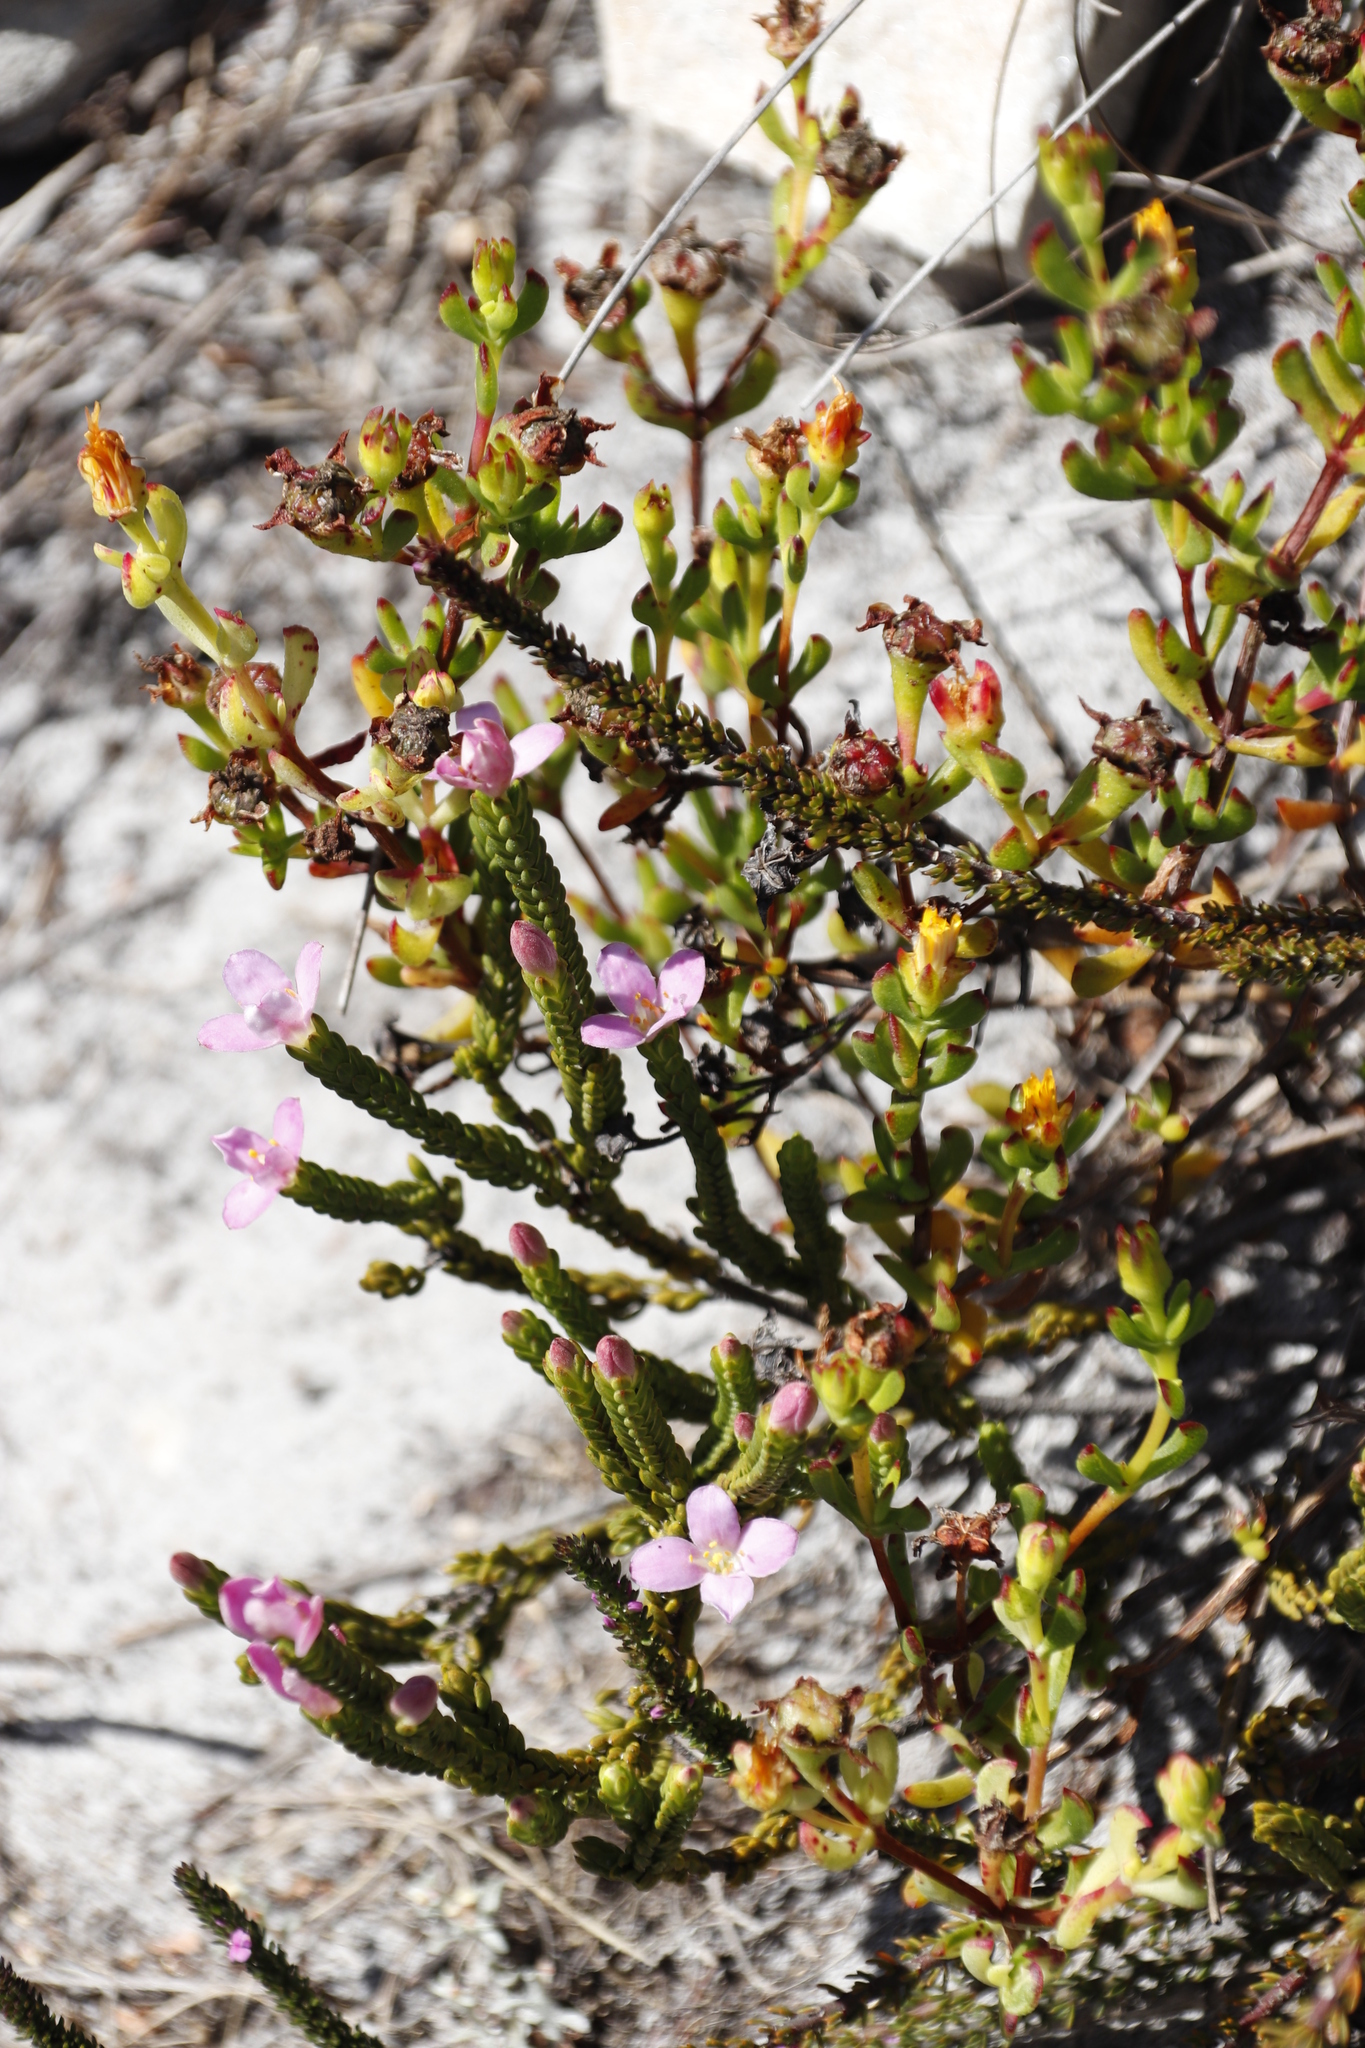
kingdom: Plantae
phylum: Tracheophyta
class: Magnoliopsida
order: Malvales
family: Thymelaeaceae
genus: Lachnaea
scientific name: Lachnaea grandiflora
